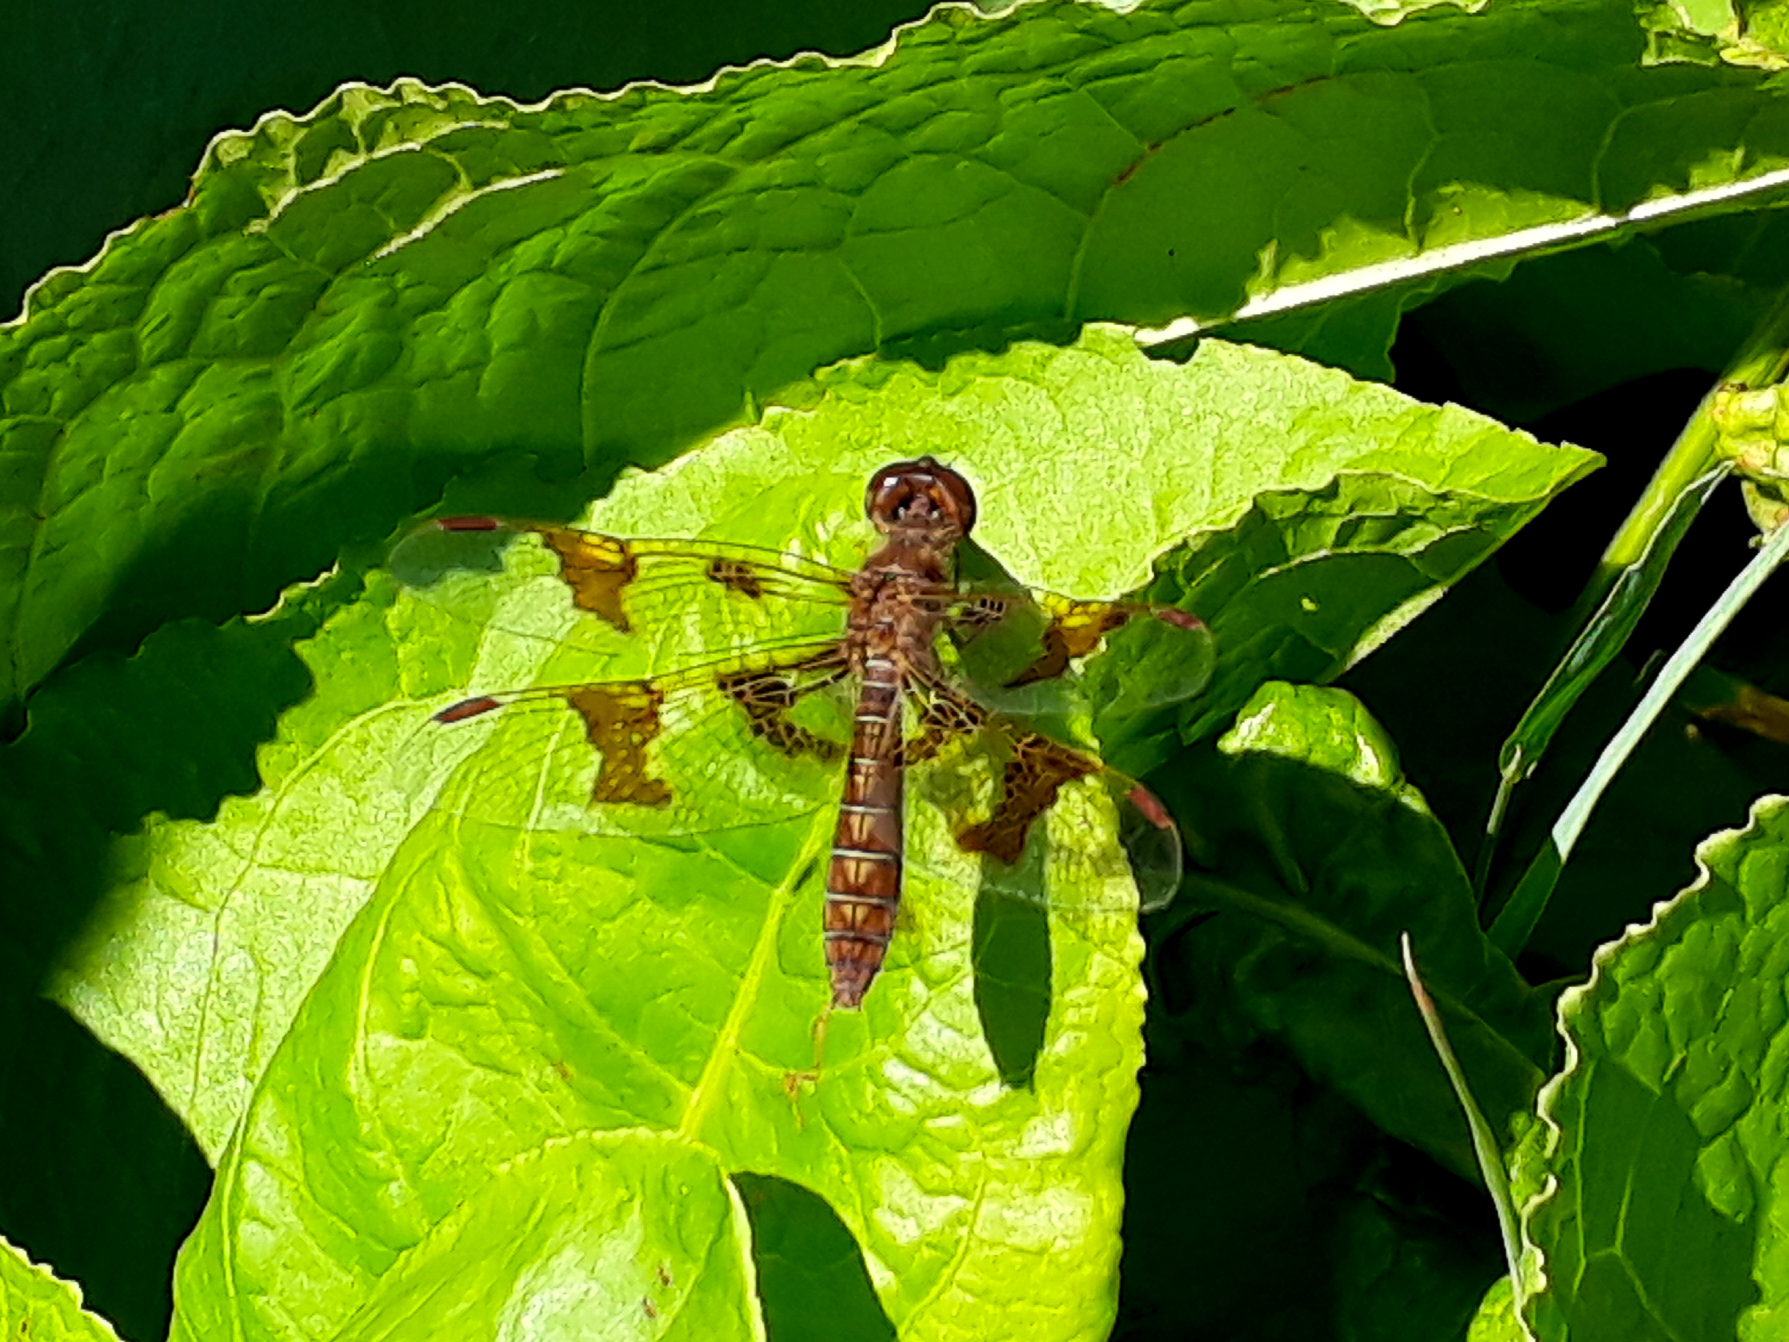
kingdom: Animalia
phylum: Arthropoda
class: Insecta
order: Odonata
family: Libellulidae
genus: Perithemis
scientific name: Perithemis tenera
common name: Eastern amberwing
